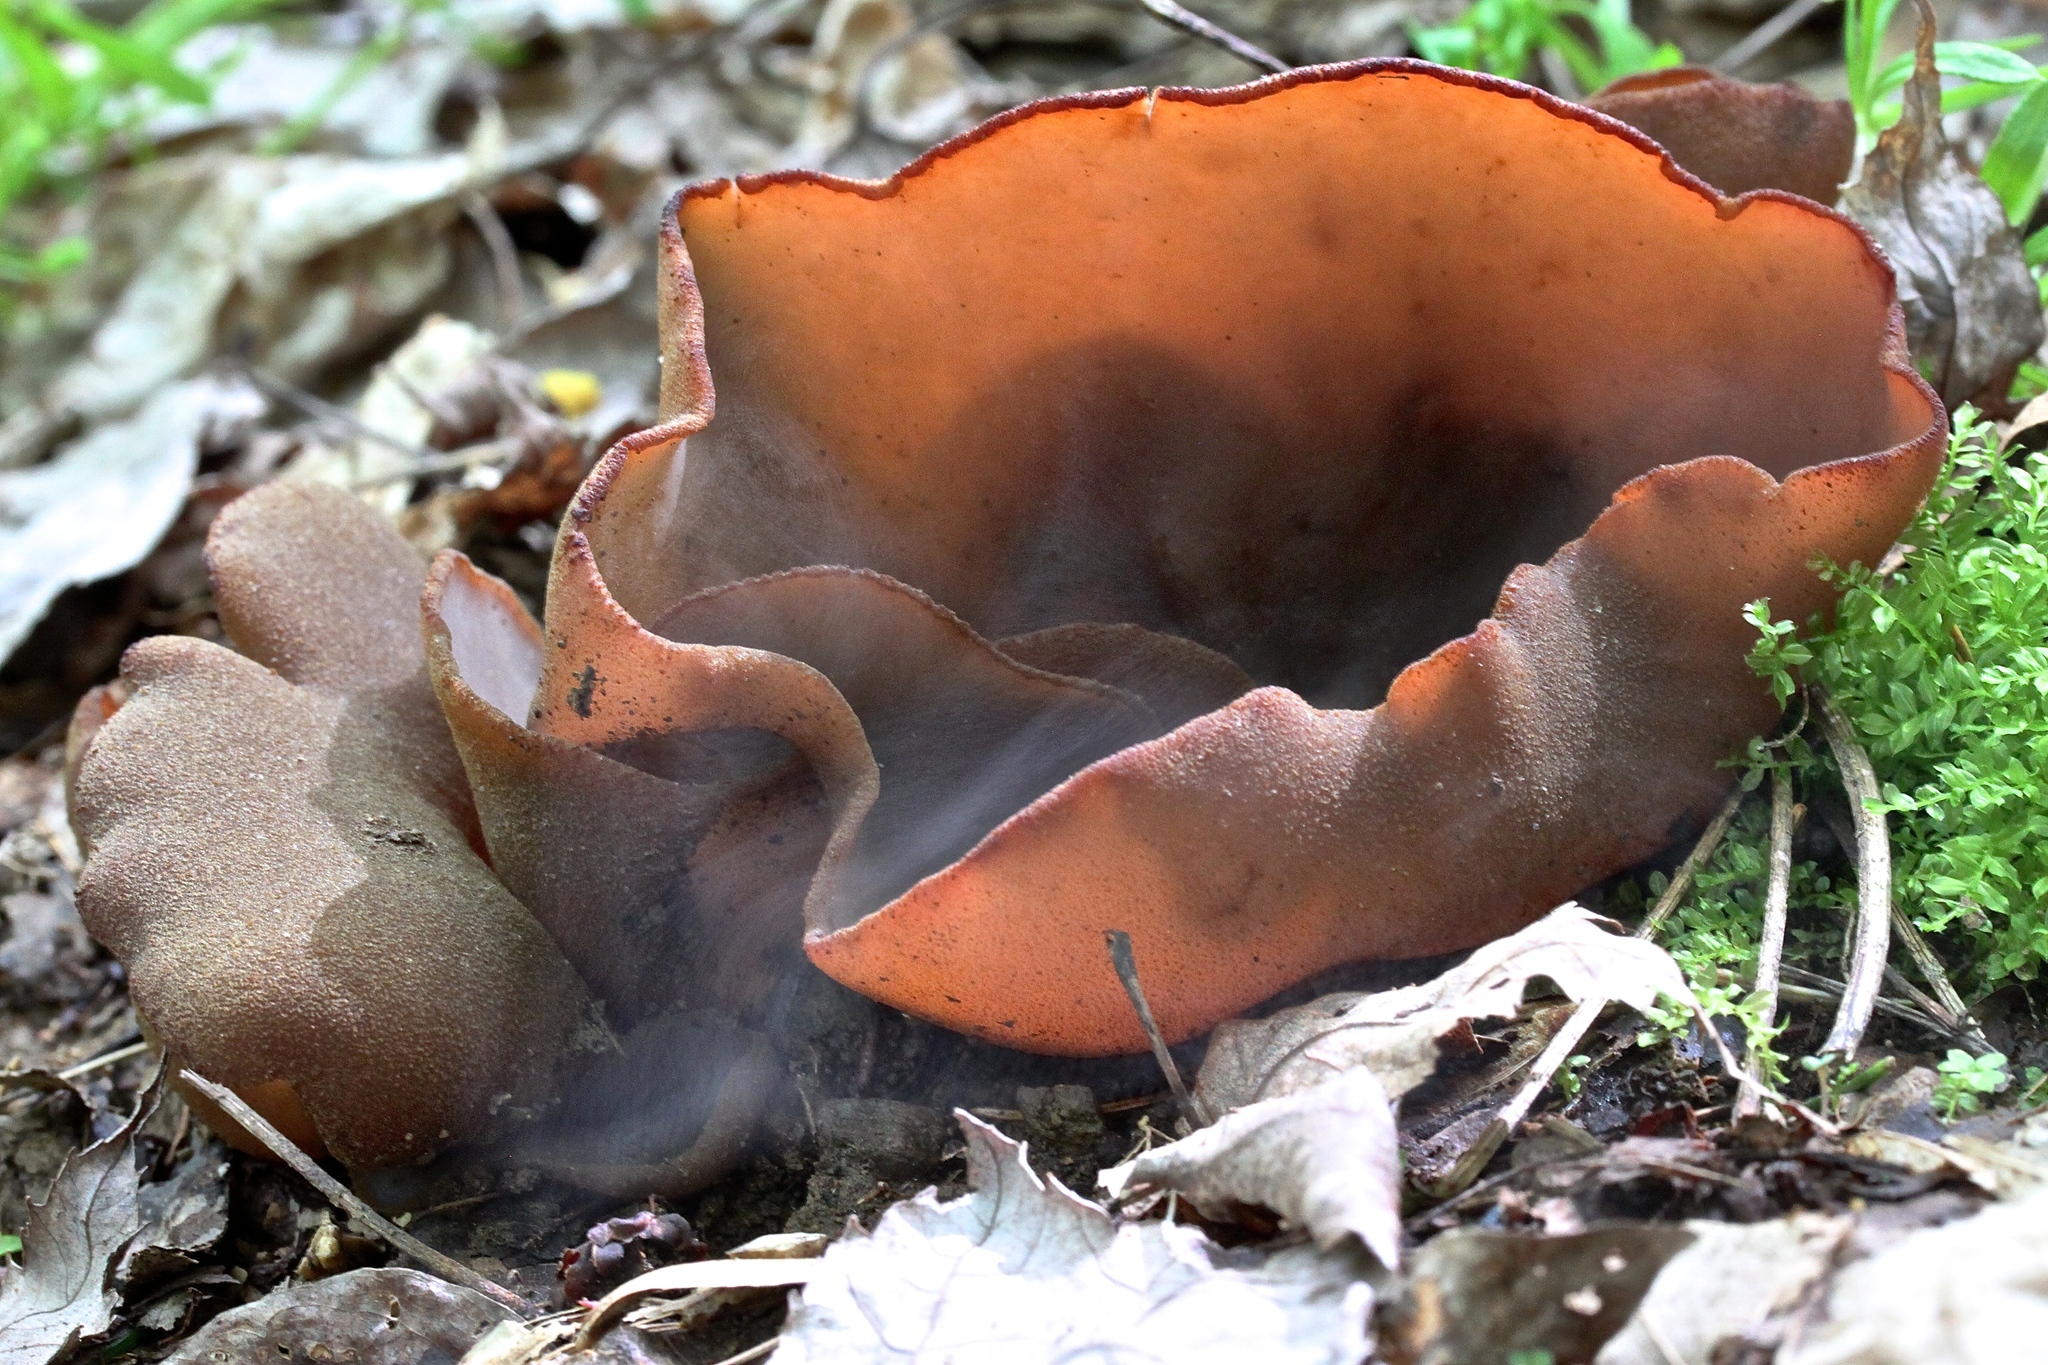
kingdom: Fungi
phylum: Ascomycota
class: Pezizomycetes
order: Pezizales
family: Pezizaceae
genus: Phylloscypha
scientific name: Phylloscypha phyllogena
